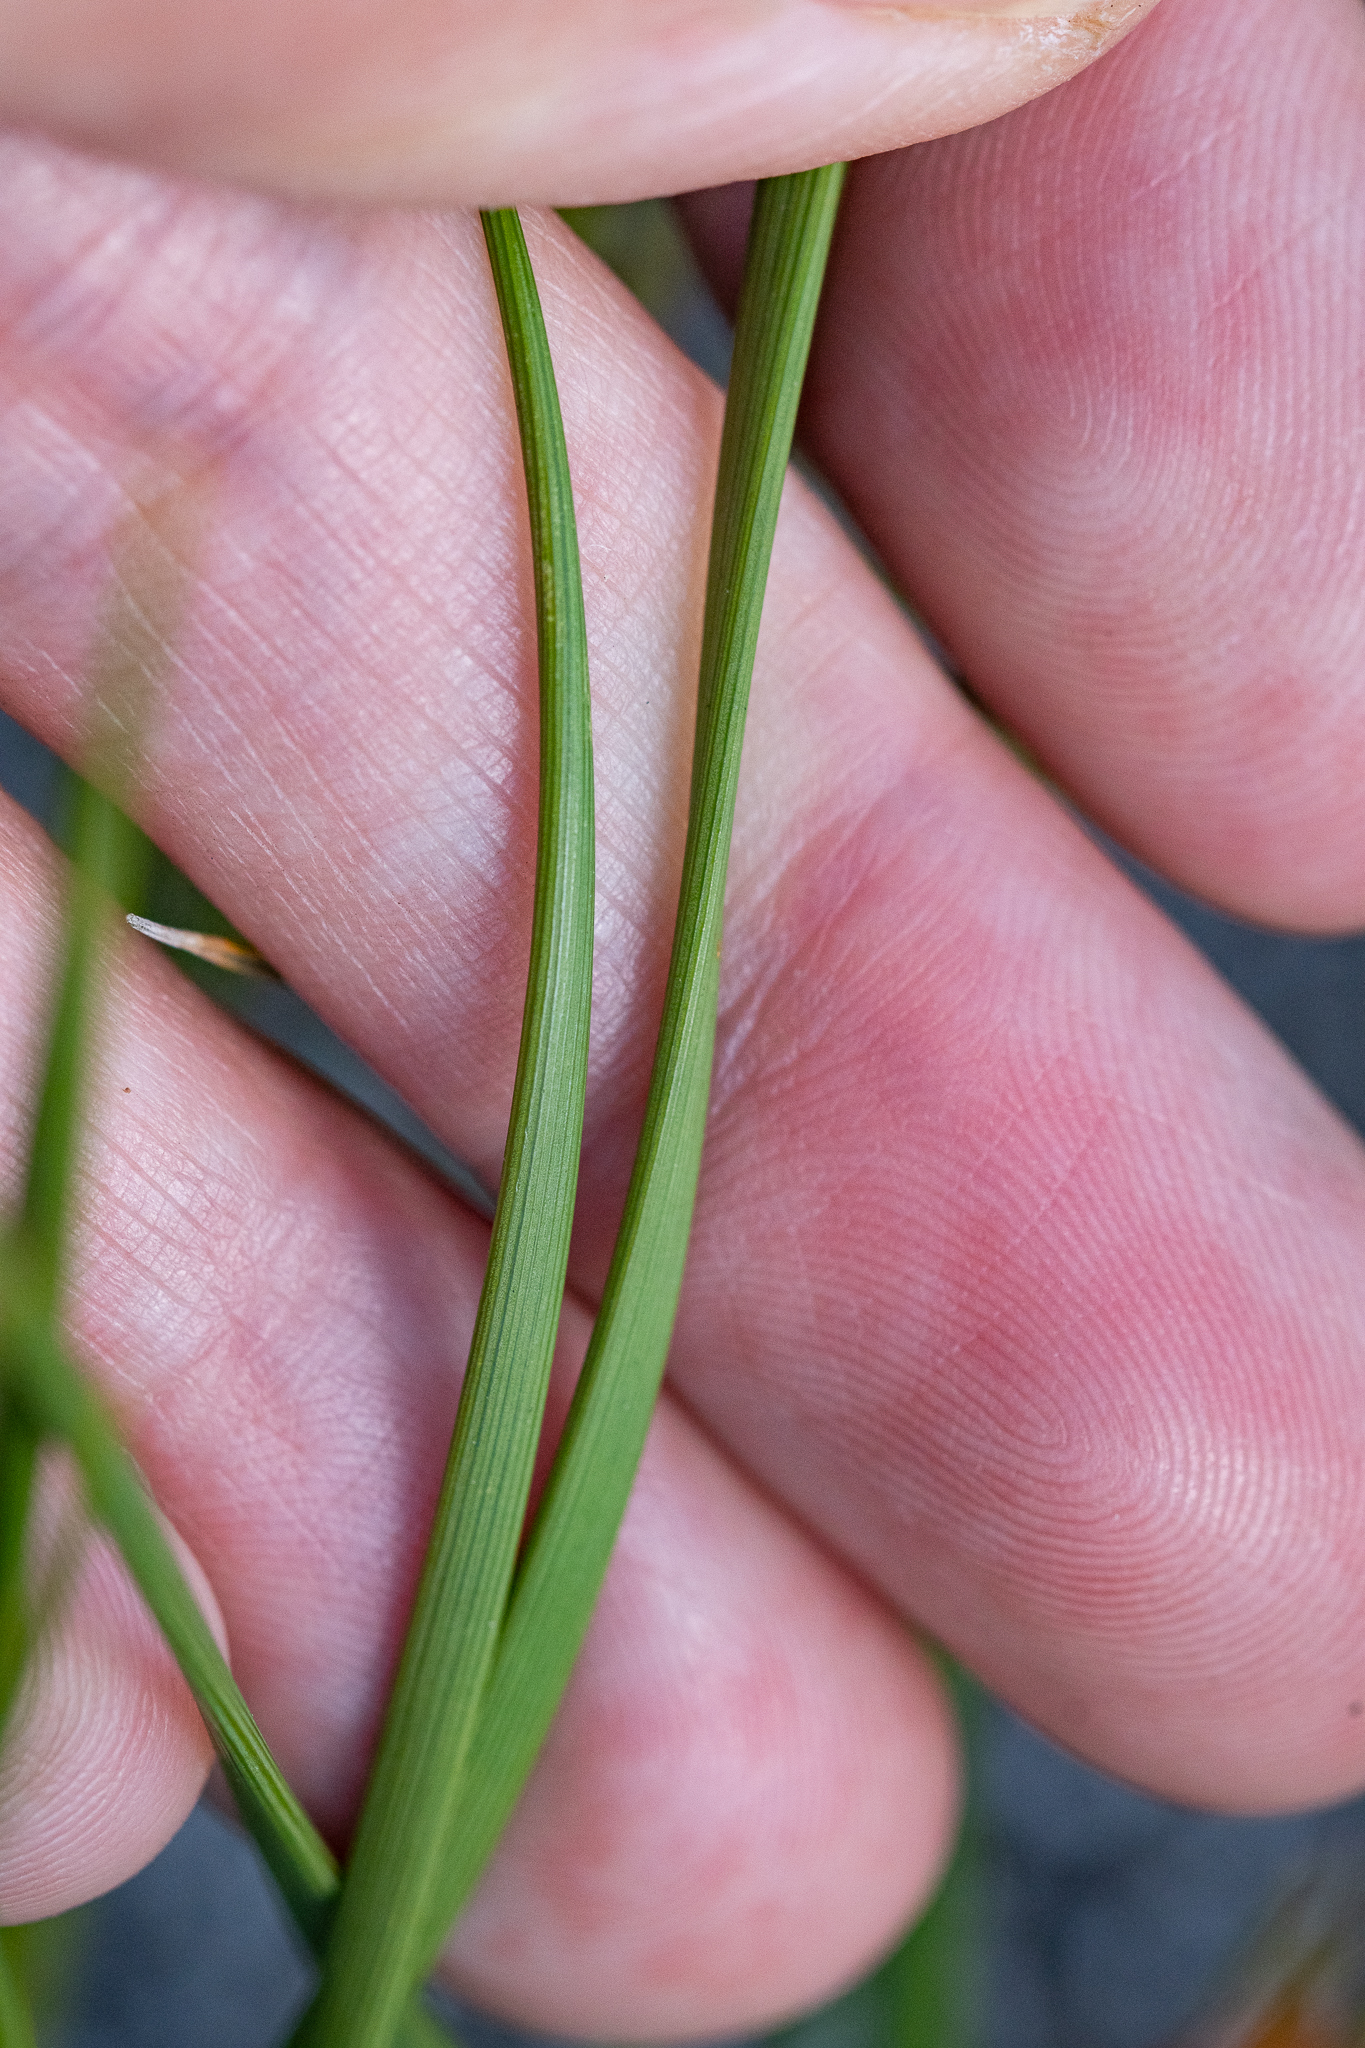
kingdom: Plantae
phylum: Tracheophyta
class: Liliopsida
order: Asparagales
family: Iridaceae
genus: Aristea
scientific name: Aristea juncifolia
